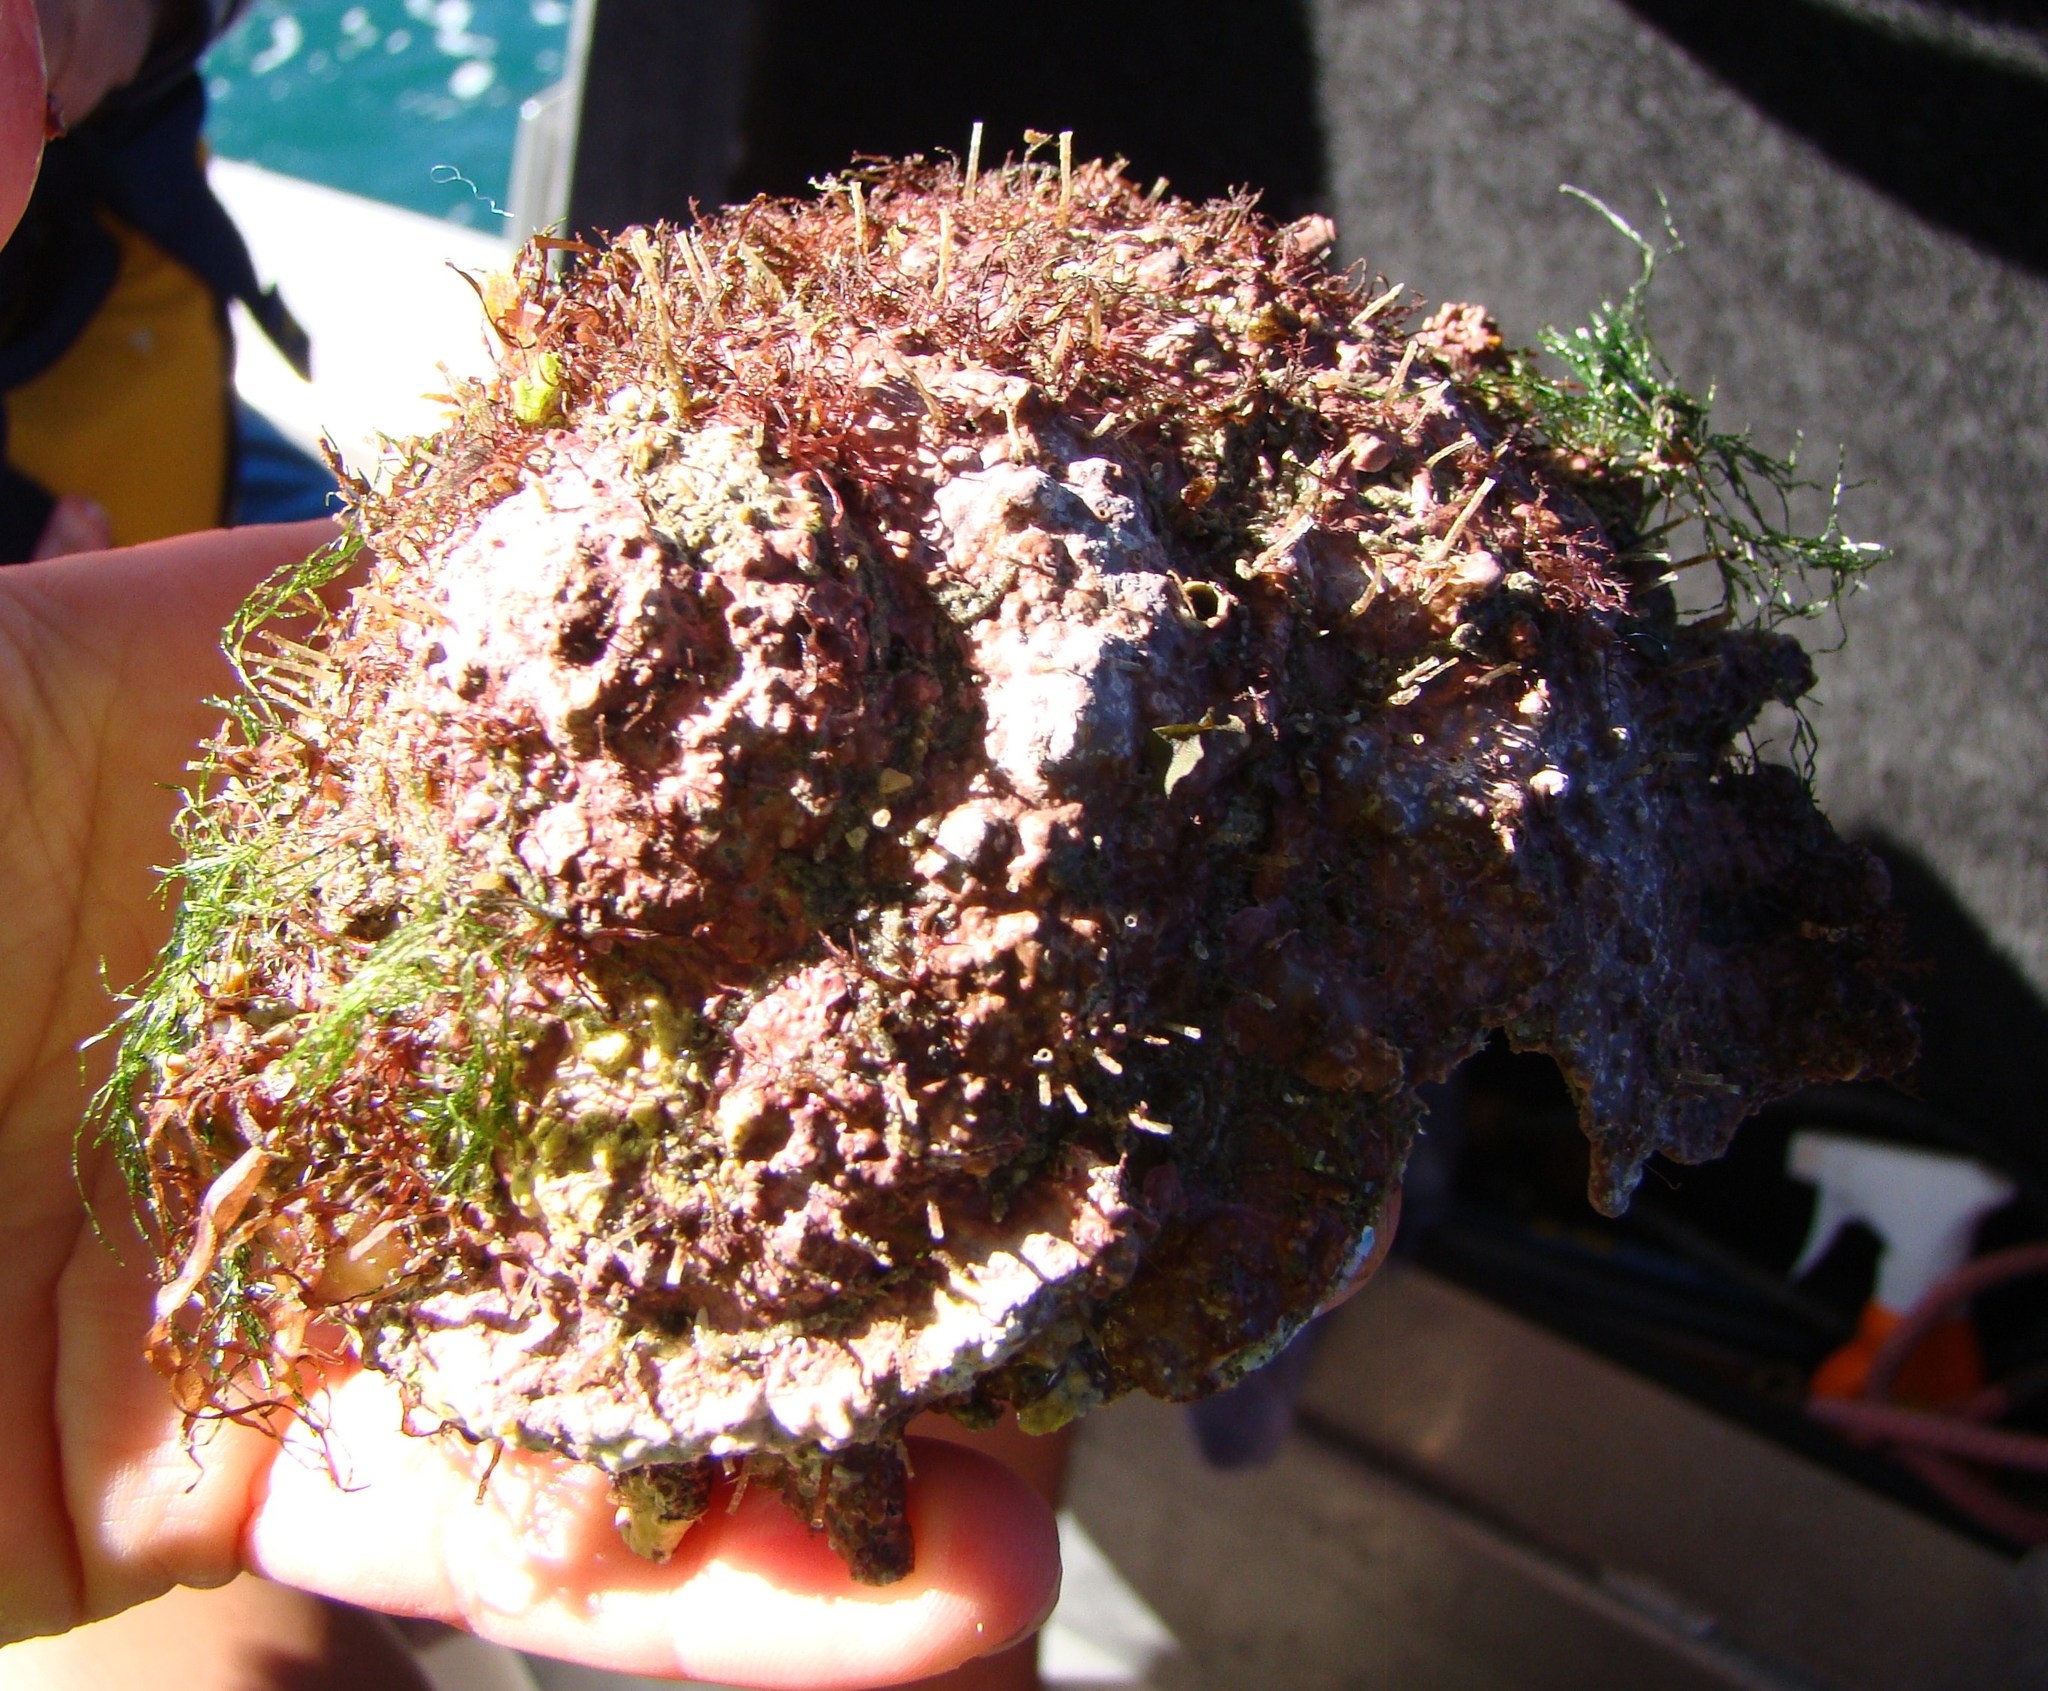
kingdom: Animalia
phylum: Mollusca
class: Gastropoda
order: Trochida
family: Turbinidae
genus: Astraea
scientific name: Astraea heliotropium
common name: Sun shell
